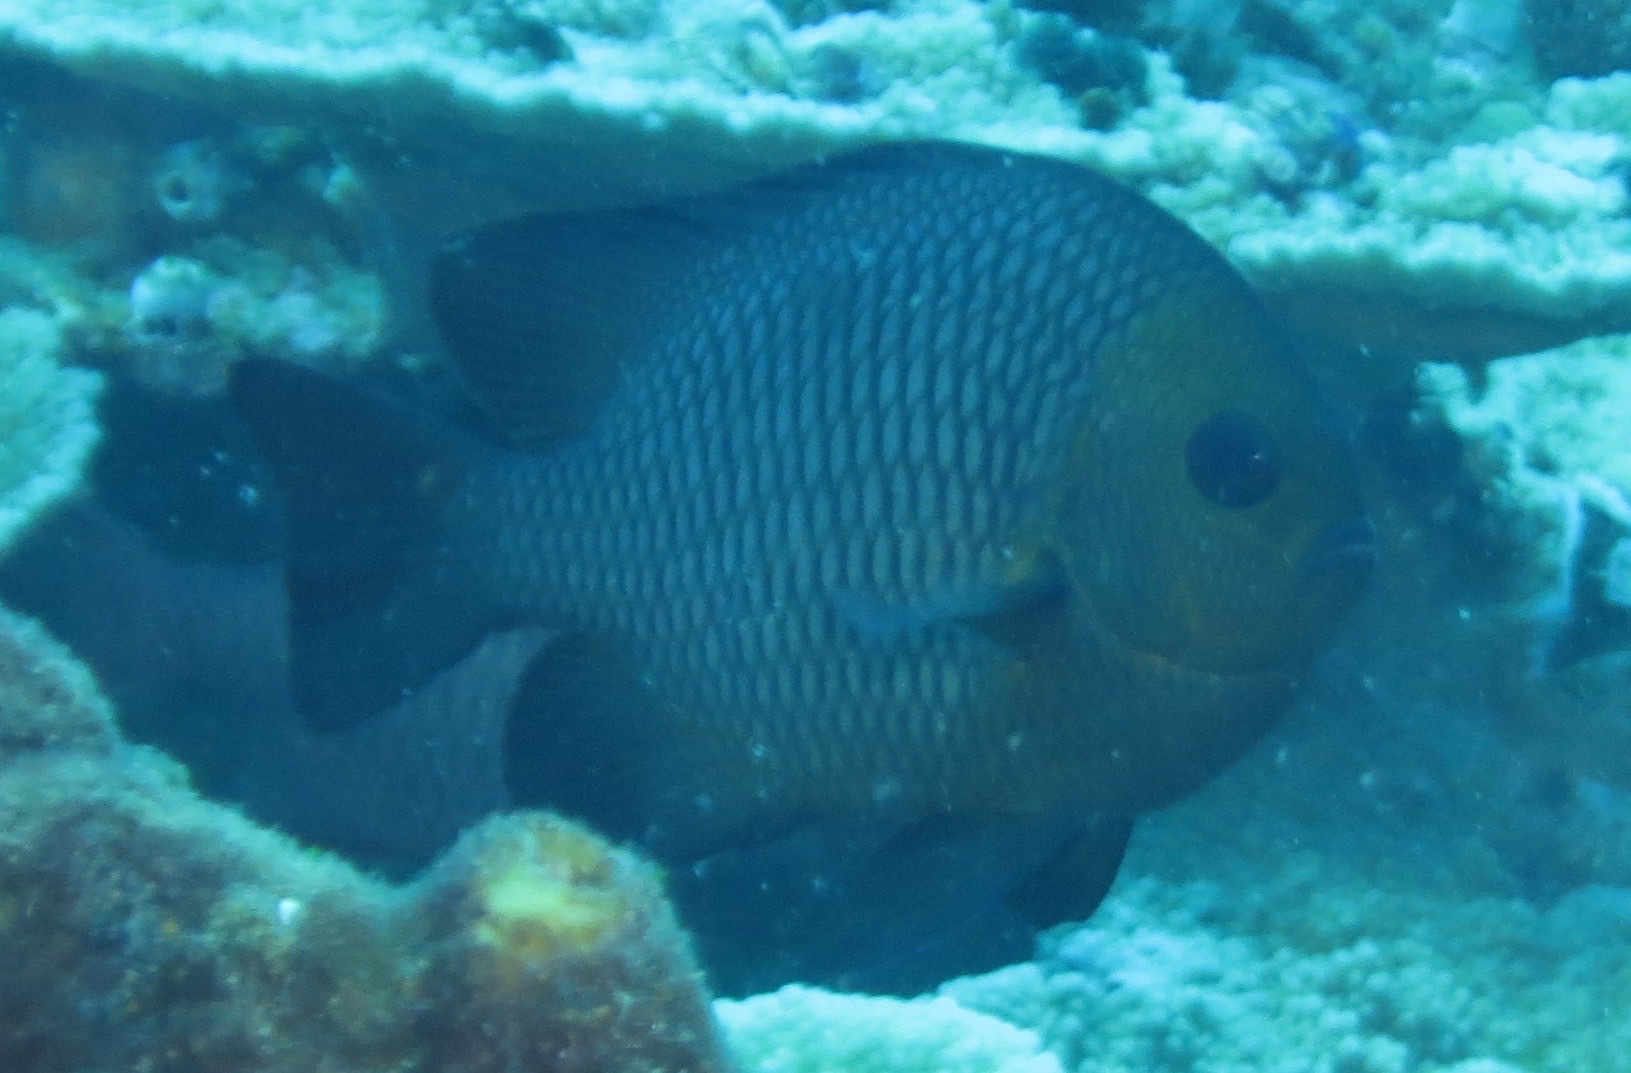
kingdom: Animalia
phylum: Chordata
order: Perciformes
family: Pomacentridae
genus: Dascyllus
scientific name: Dascyllus trimaculatus
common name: Threespot dascyllus
